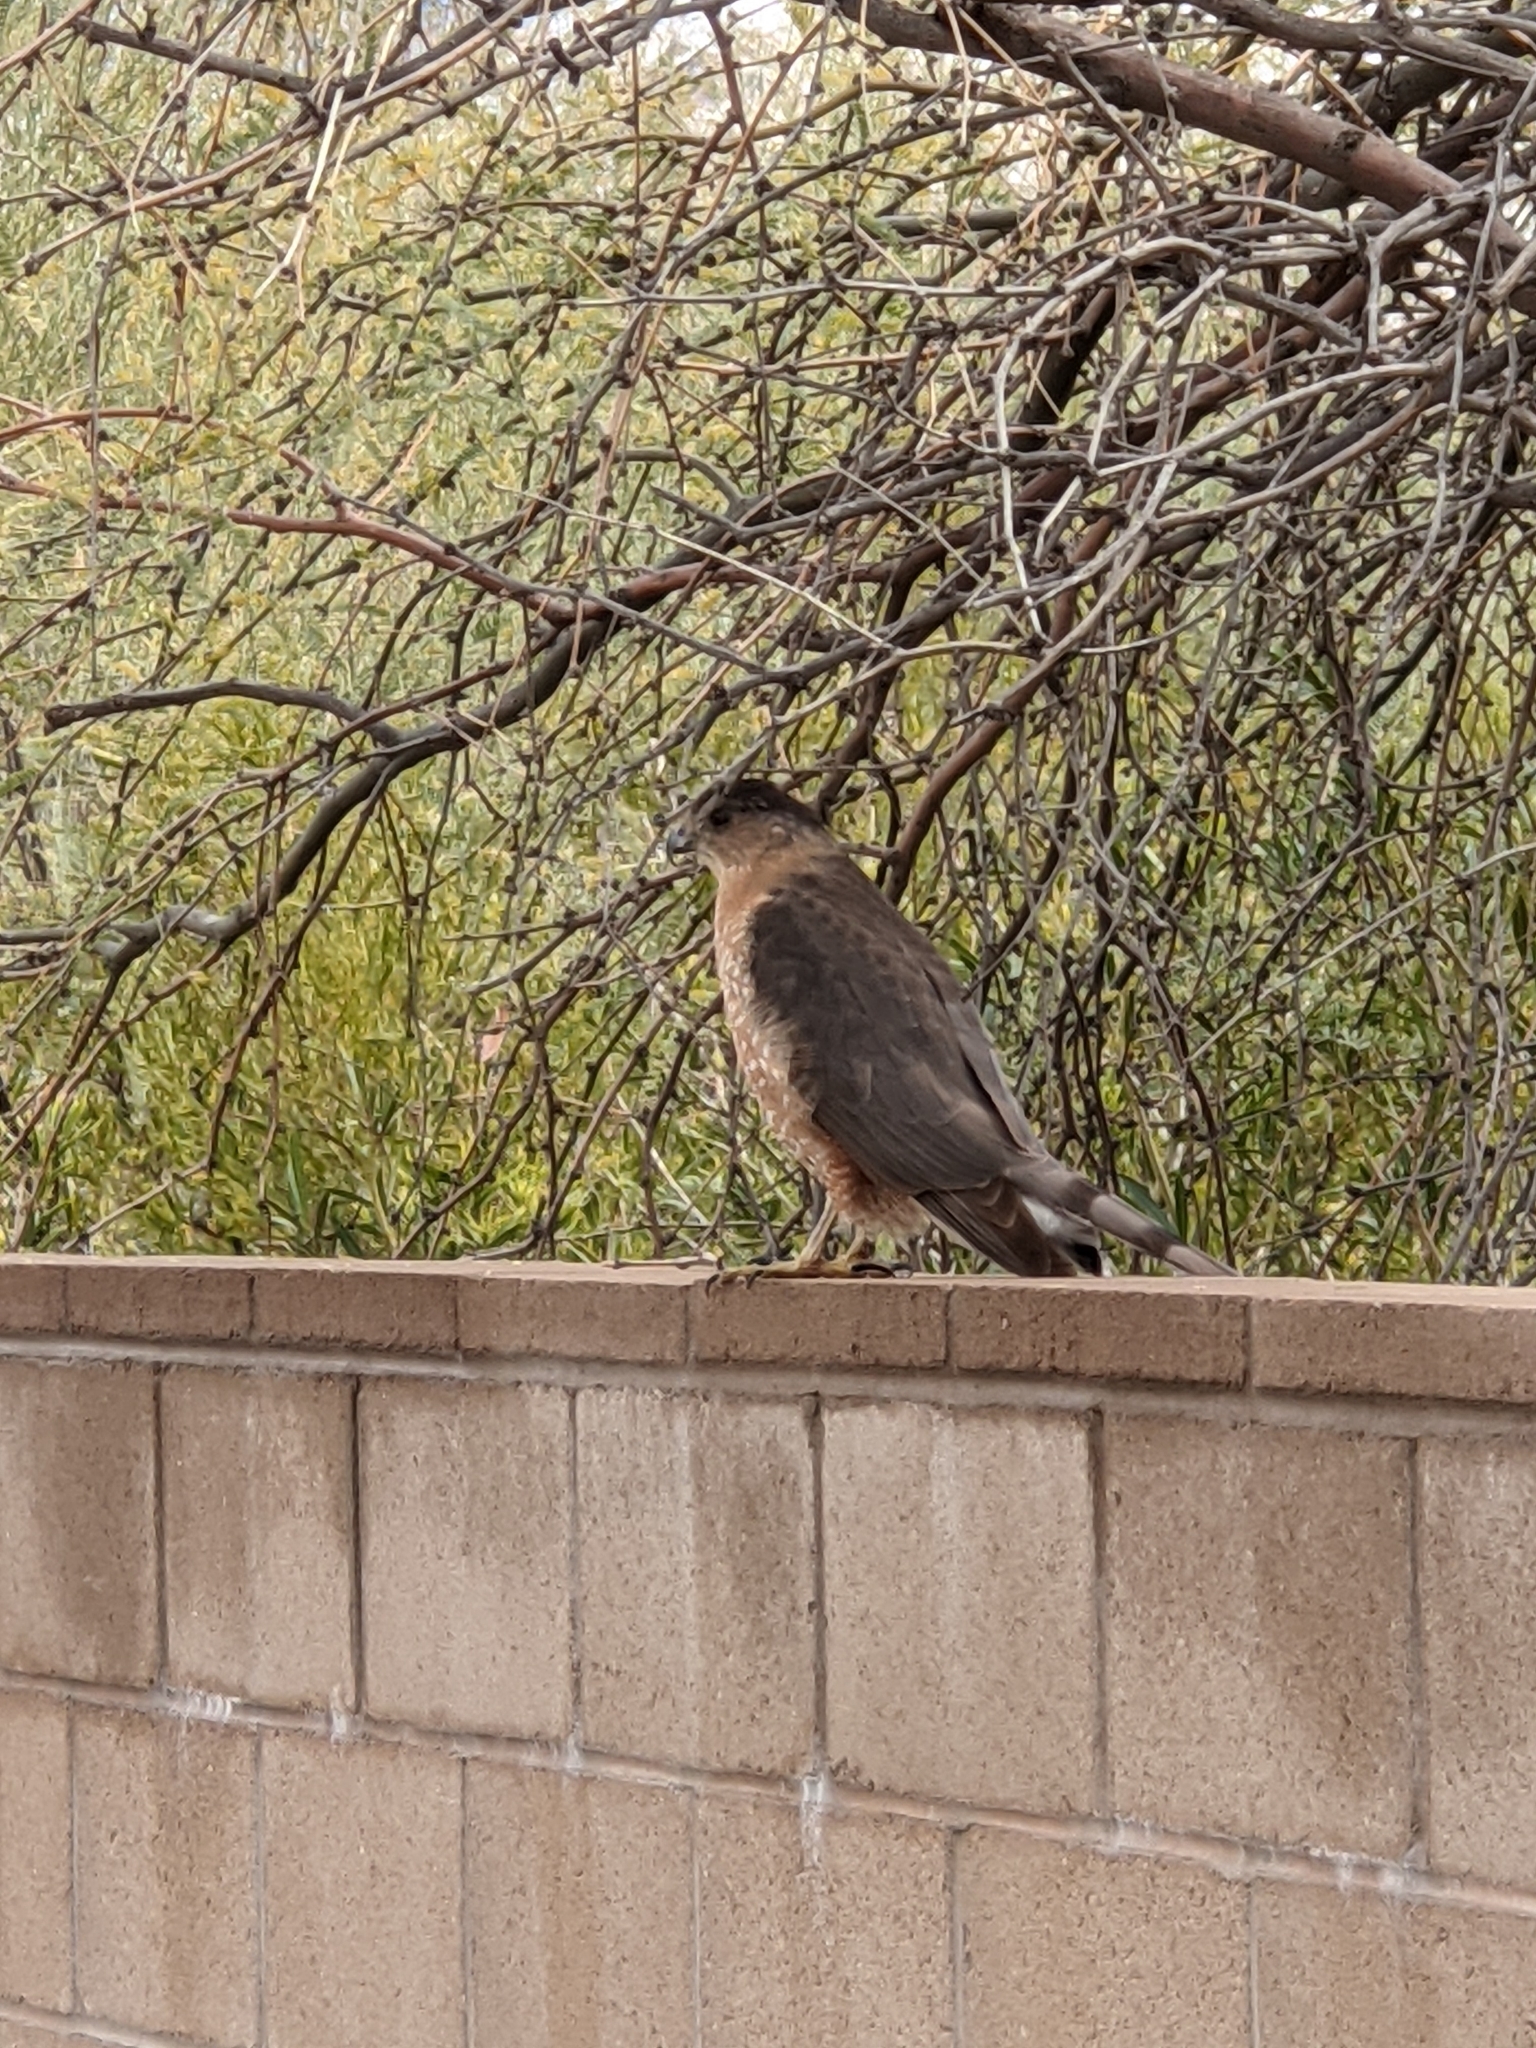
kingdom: Animalia
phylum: Chordata
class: Aves
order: Accipitriformes
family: Accipitridae
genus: Accipiter
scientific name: Accipiter cooperii
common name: Cooper's hawk
